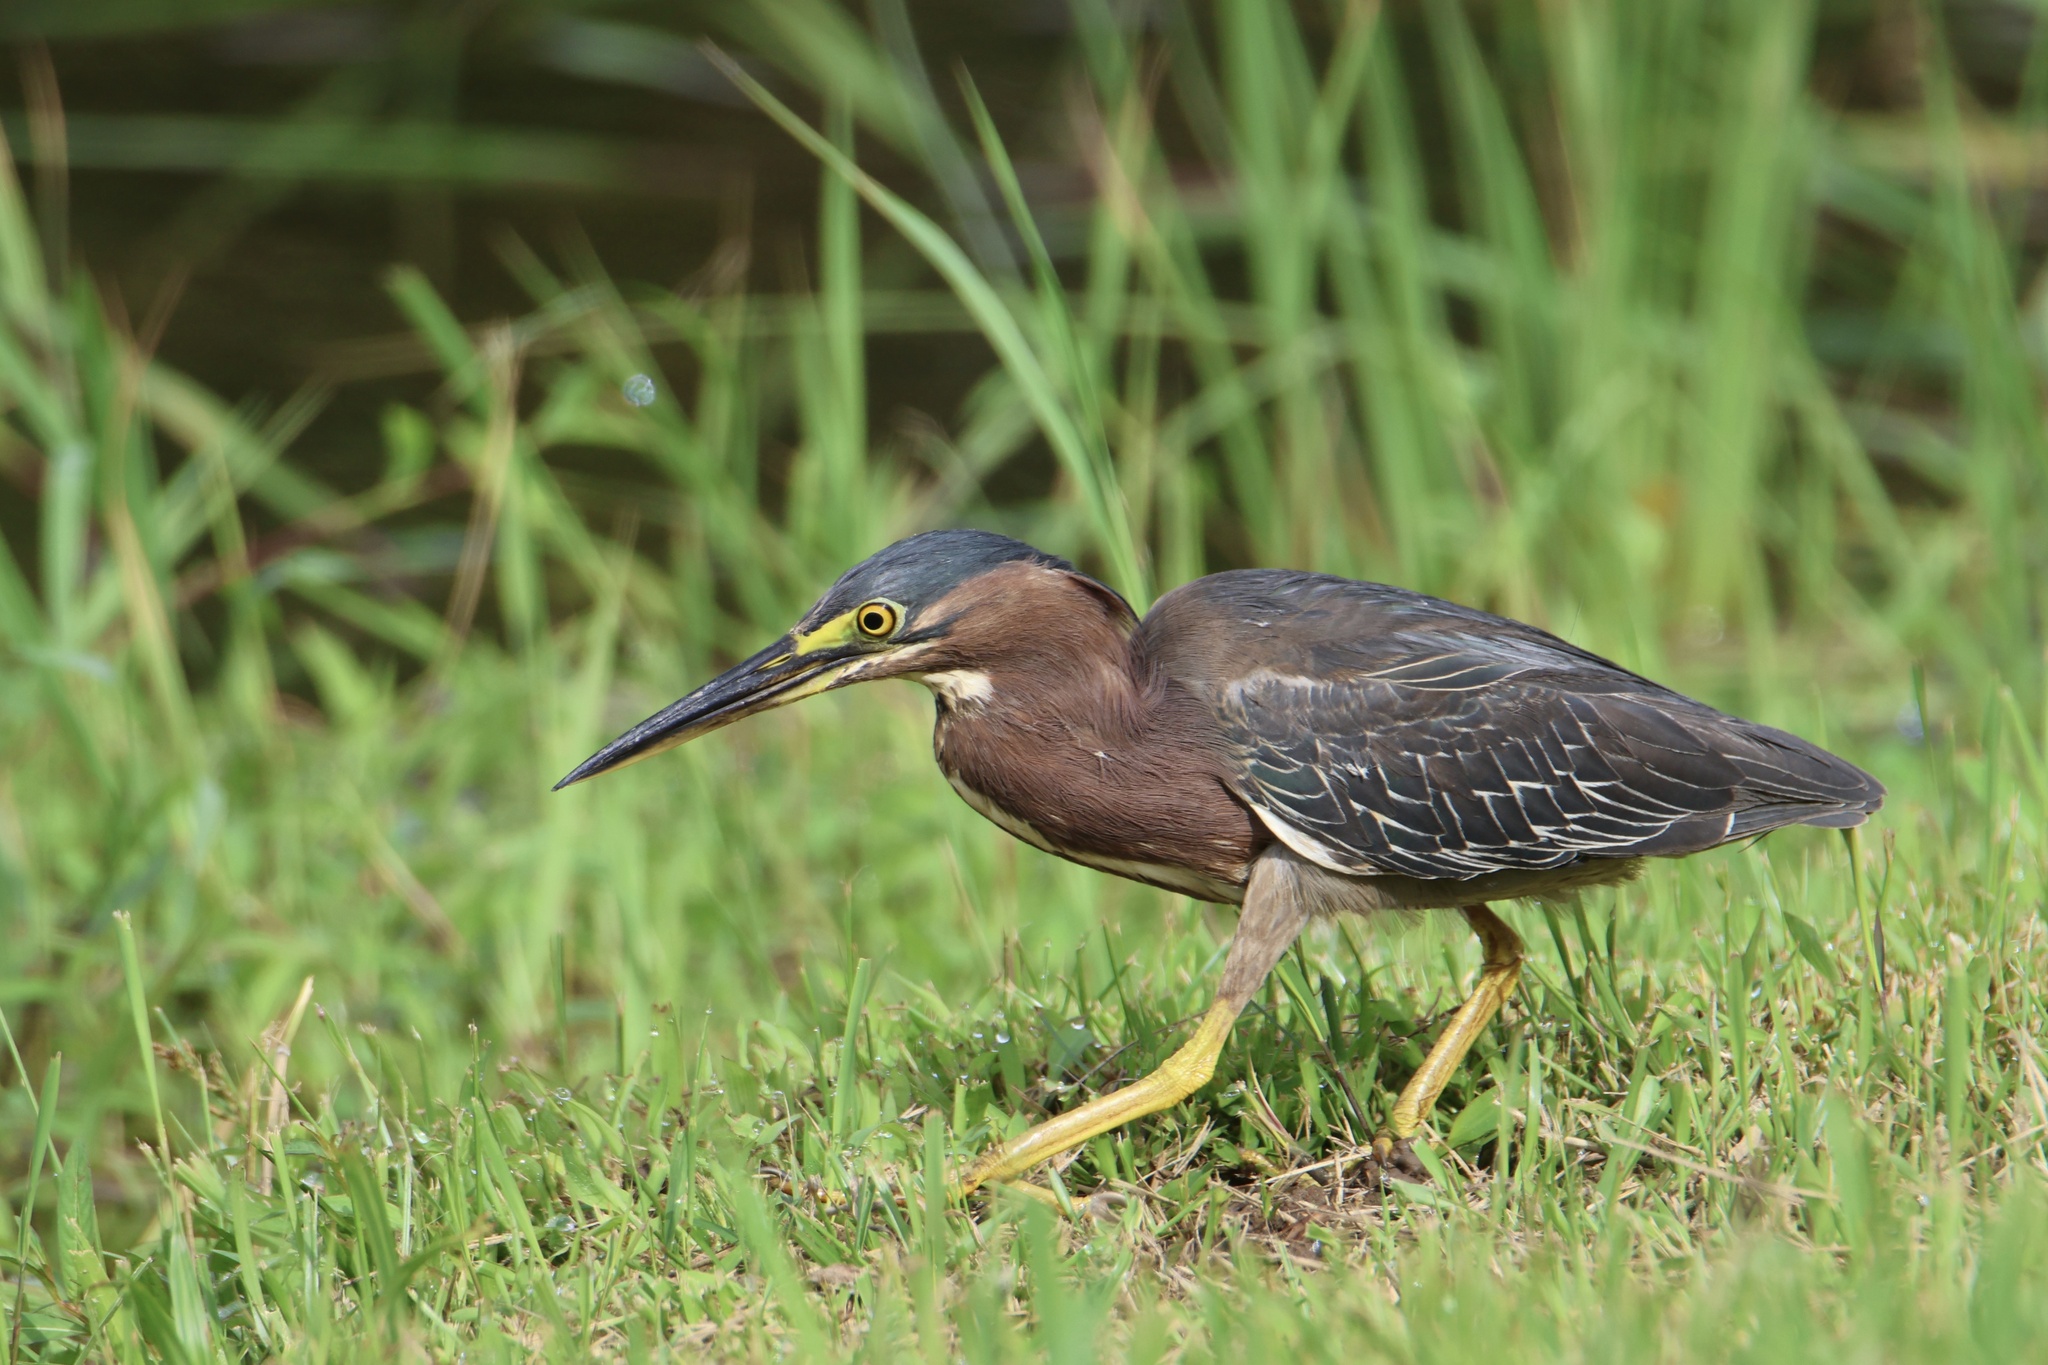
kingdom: Animalia
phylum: Chordata
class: Aves
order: Pelecaniformes
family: Ardeidae
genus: Butorides
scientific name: Butorides virescens
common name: Green heron
